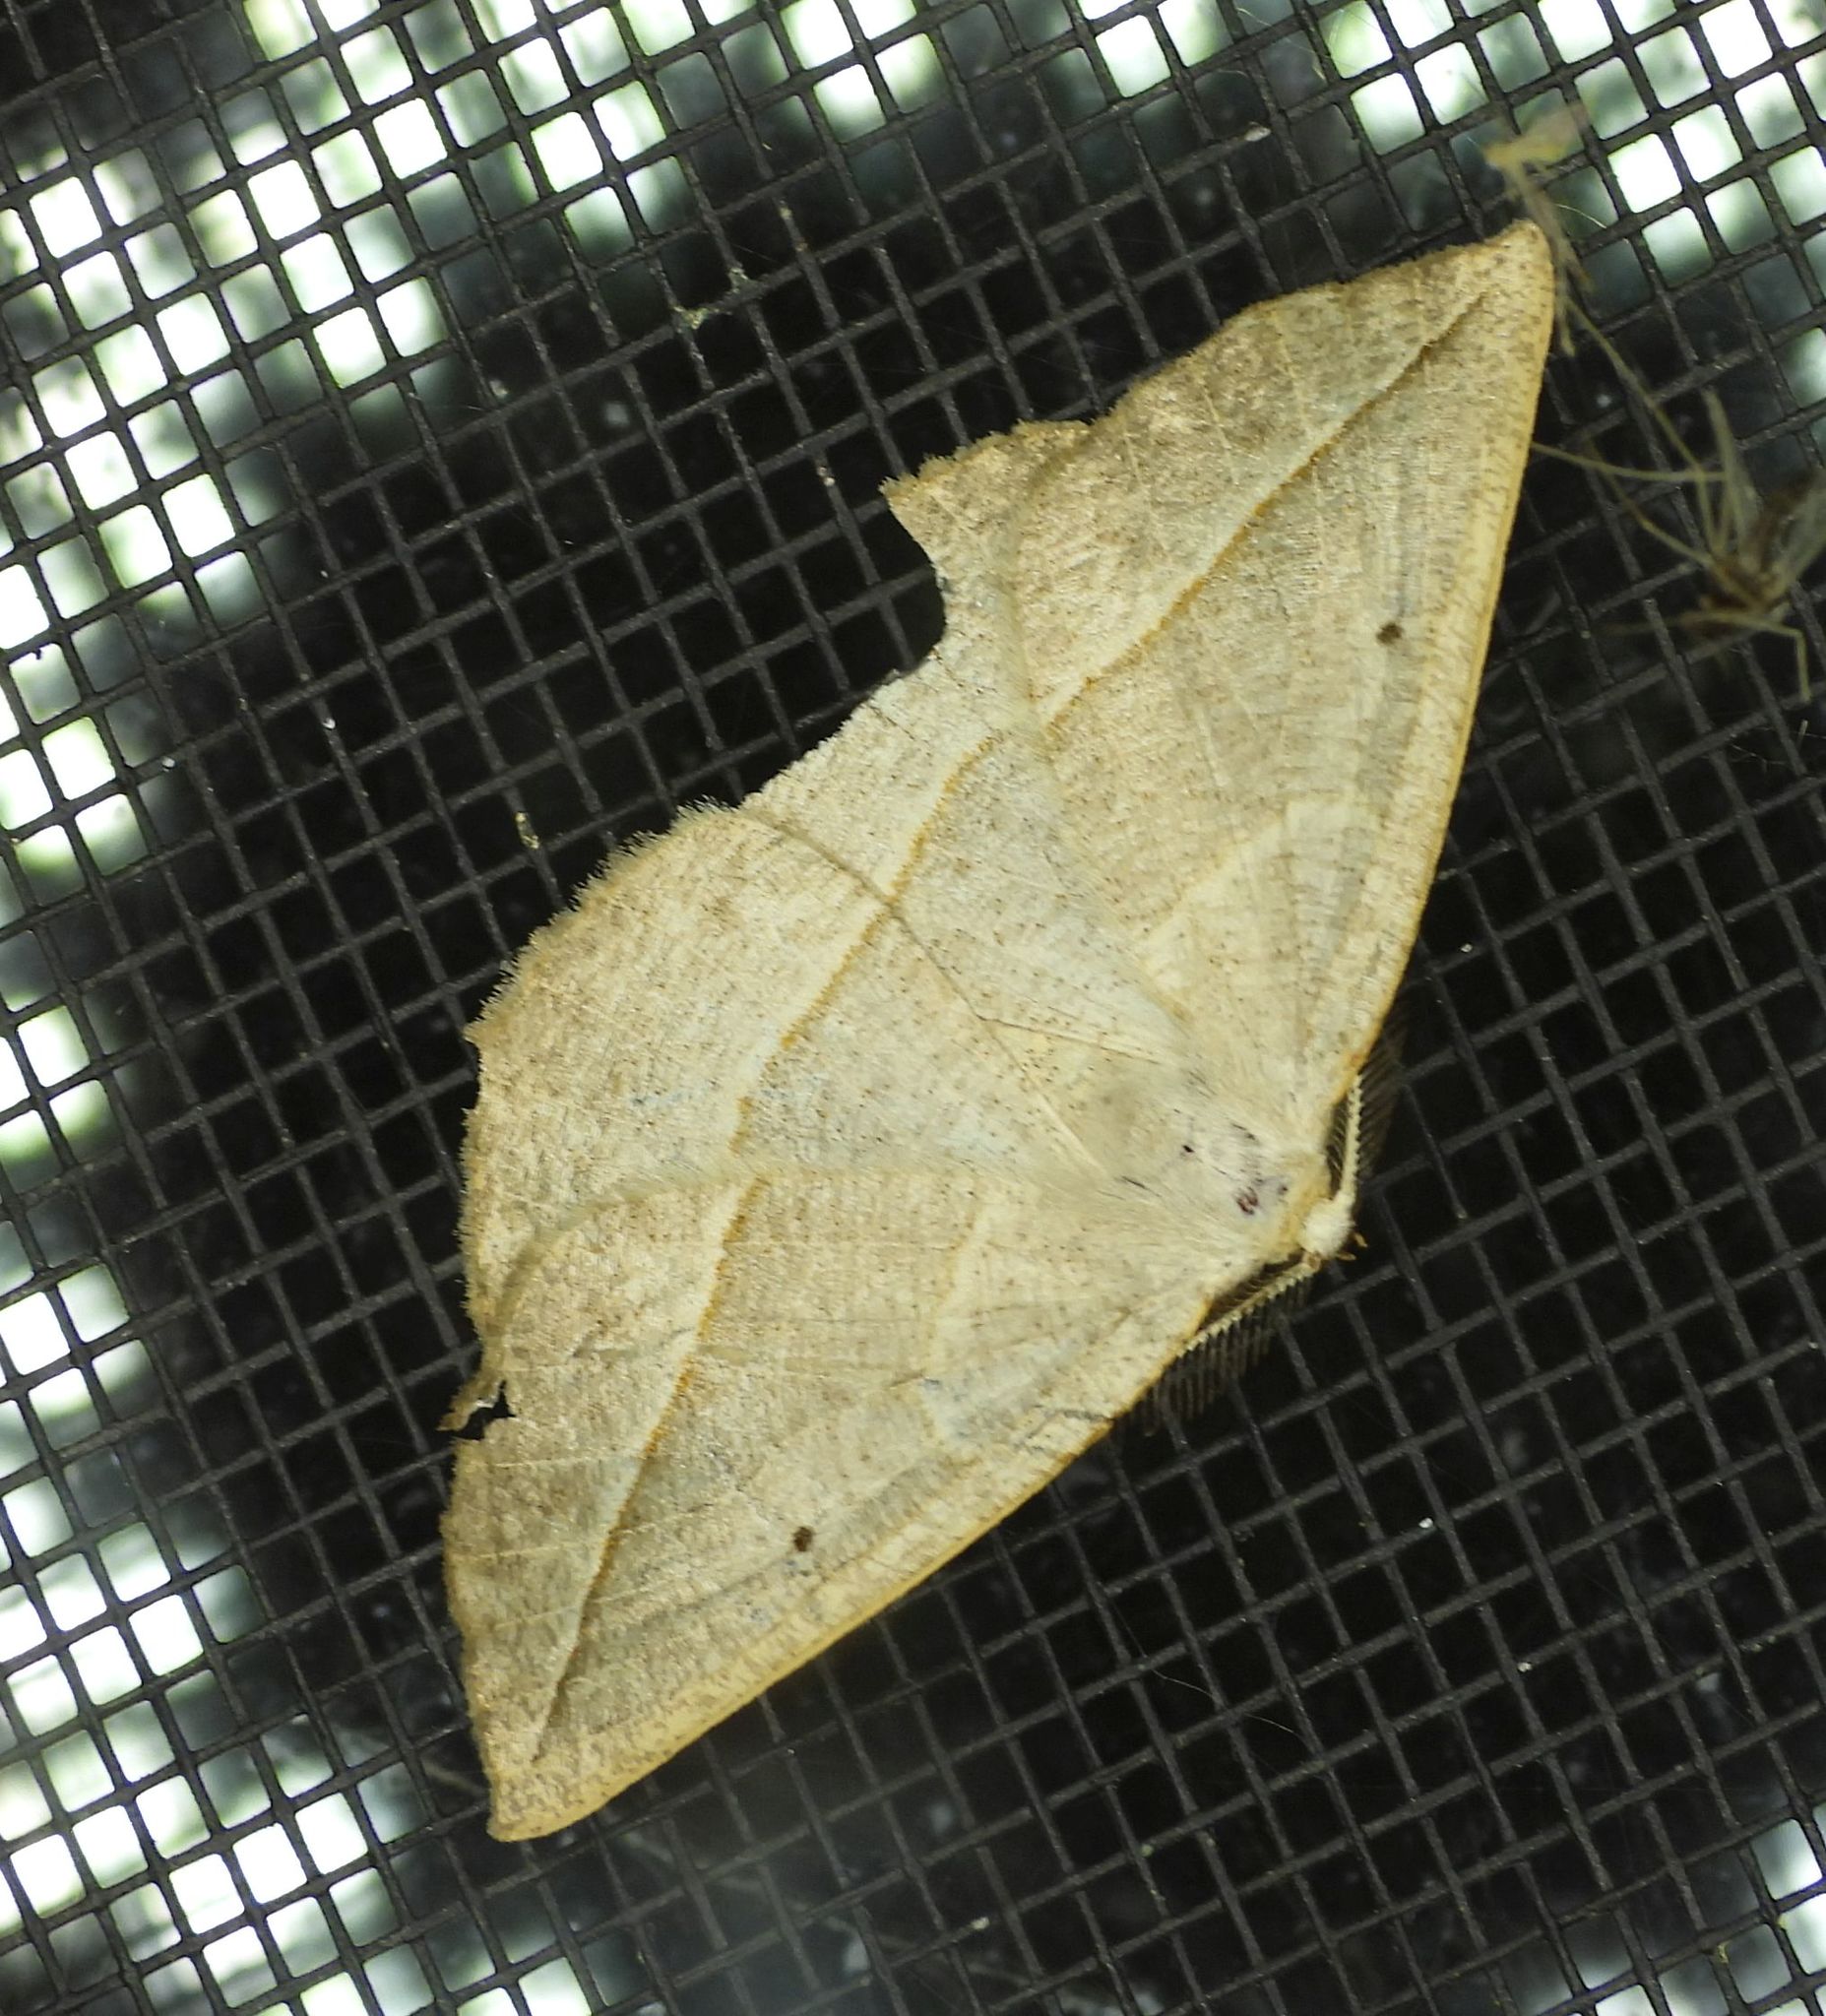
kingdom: Animalia
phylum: Arthropoda
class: Insecta
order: Lepidoptera
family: Geometridae
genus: Eusarca
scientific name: Eusarca confusaria
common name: Confused eusarca
